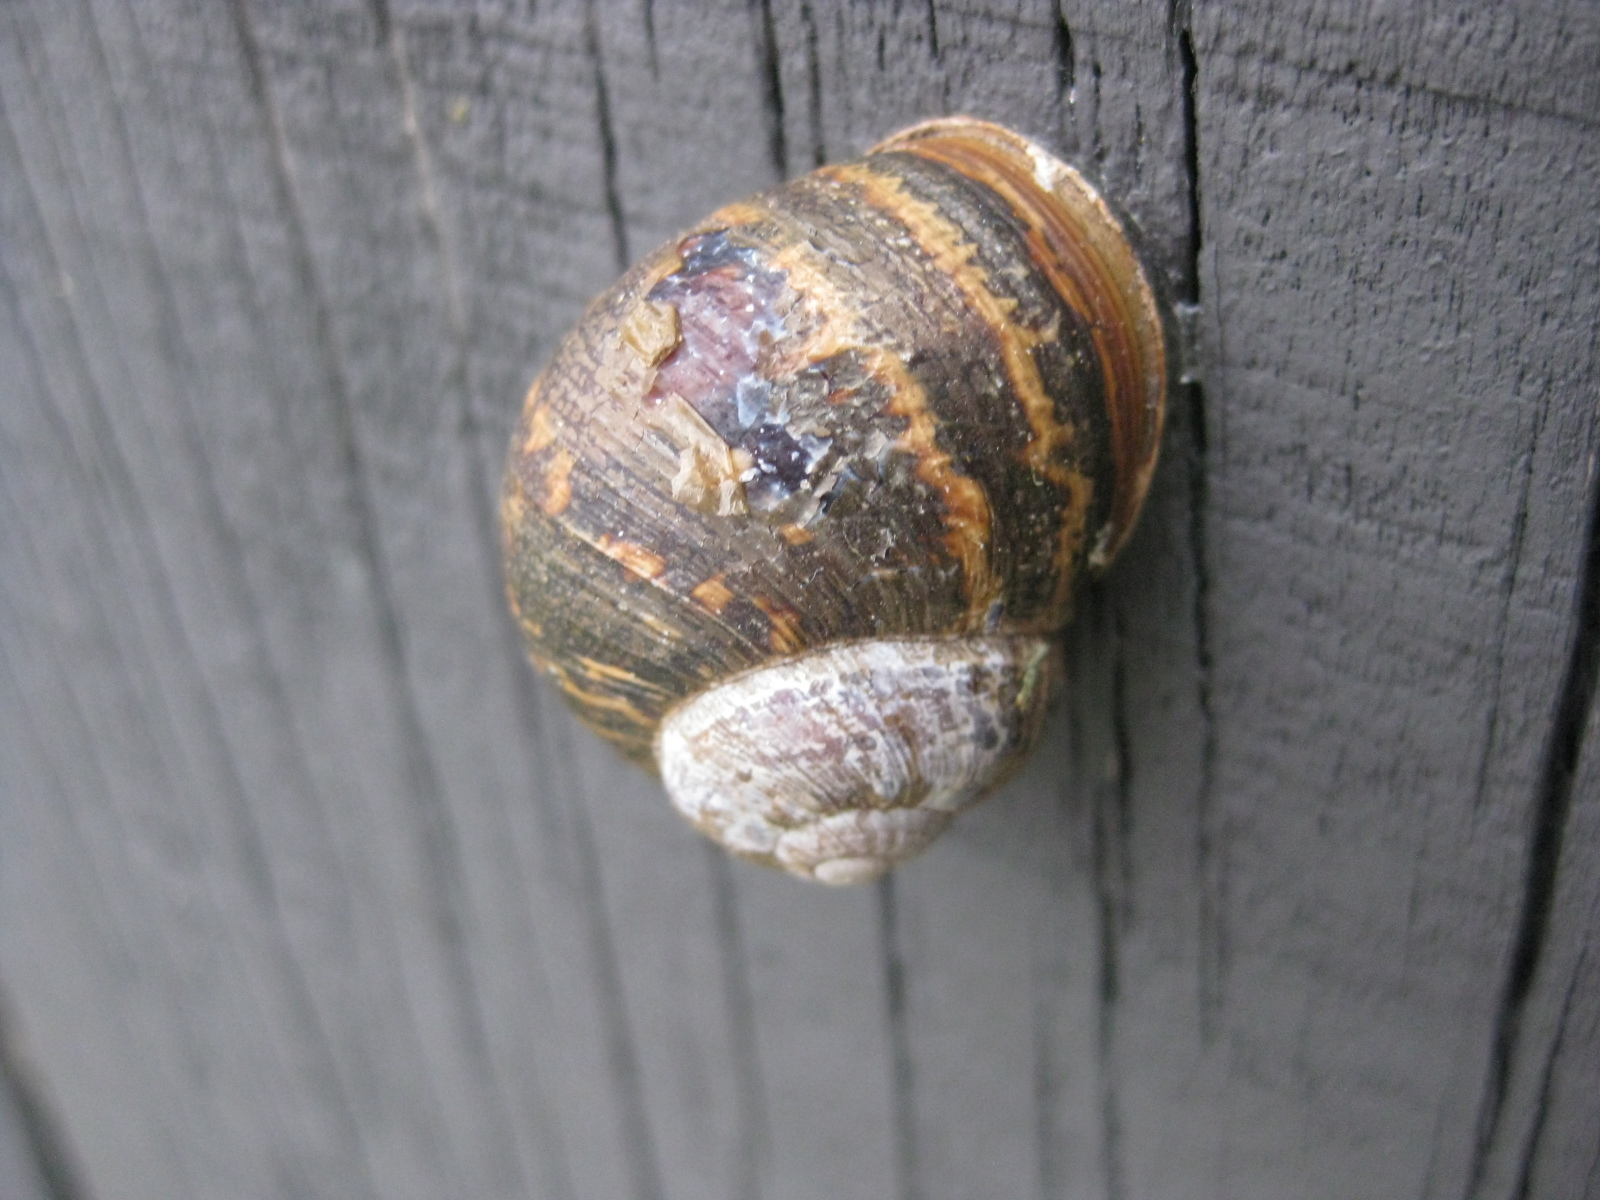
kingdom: Animalia
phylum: Mollusca
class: Gastropoda
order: Stylommatophora
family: Helicidae
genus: Cornu
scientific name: Cornu aspersum
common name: Brown garden snail
